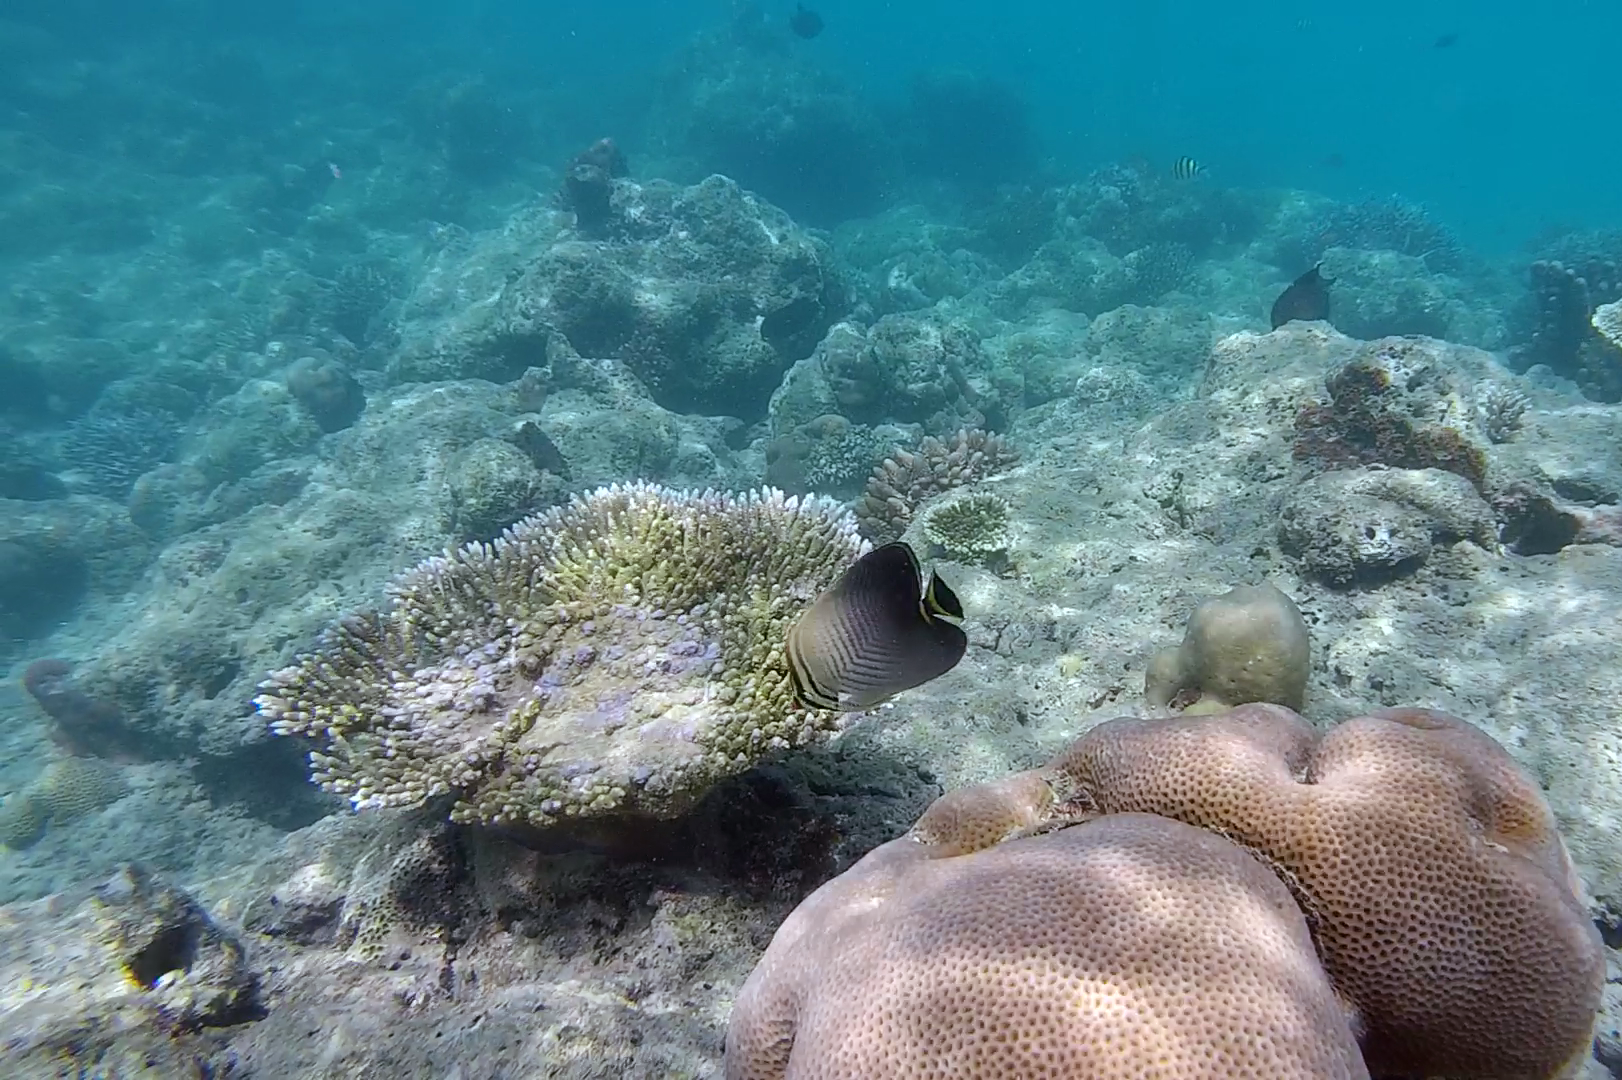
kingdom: Animalia
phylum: Chordata
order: Perciformes
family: Chaetodontidae
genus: Chaetodon
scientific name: Chaetodon triangulum
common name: Triangular butterflyfish
